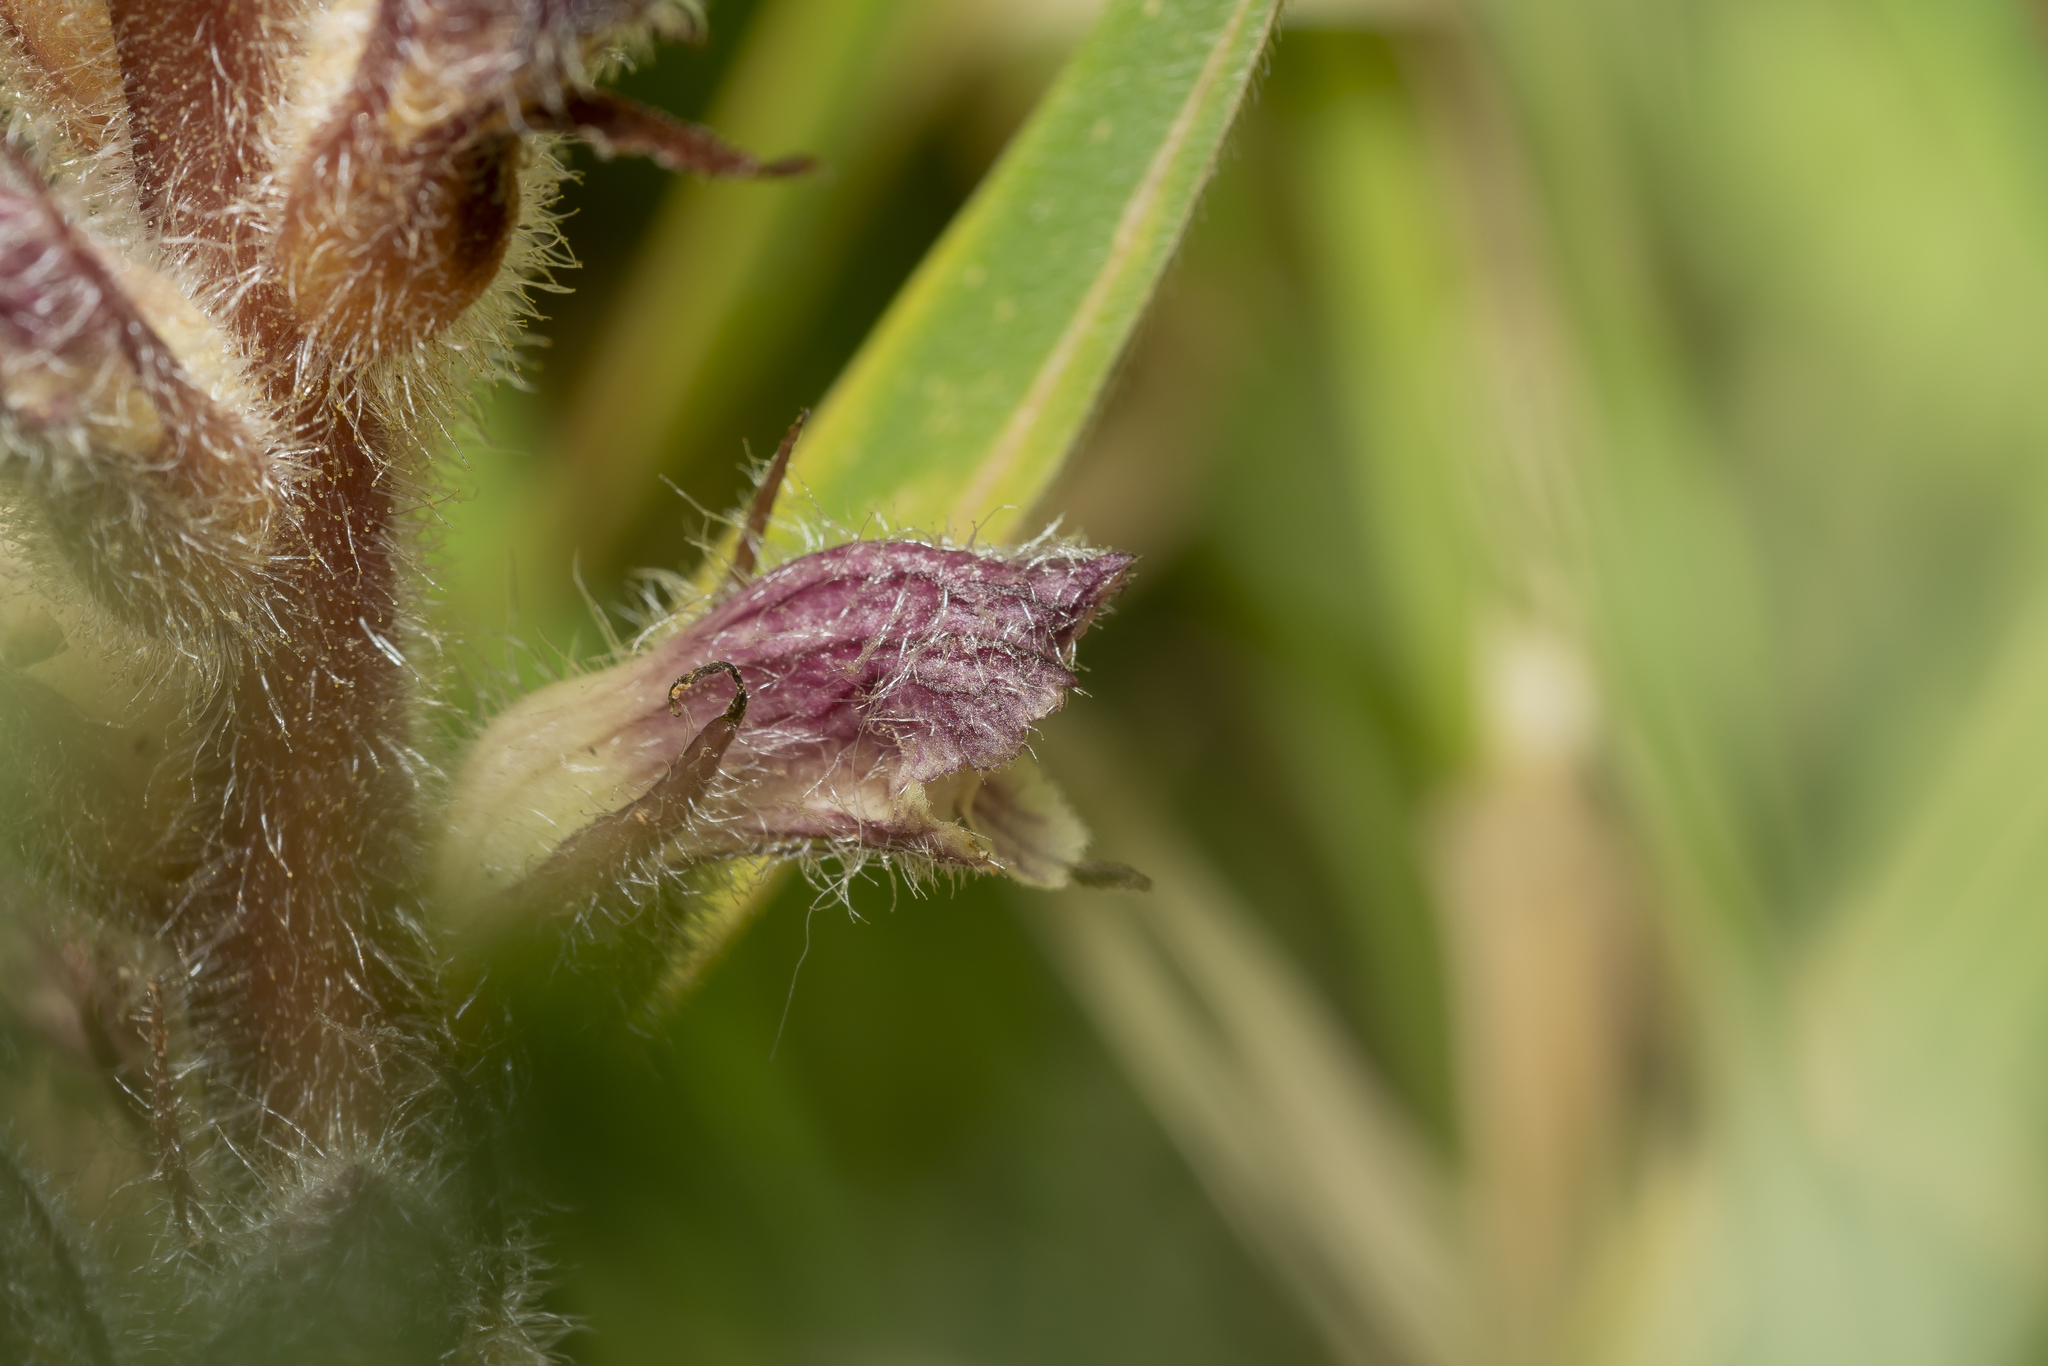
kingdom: Plantae
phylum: Tracheophyta
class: Magnoliopsida
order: Lamiales
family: Orobanchaceae
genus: Orobanche
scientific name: Orobanche pubescens
